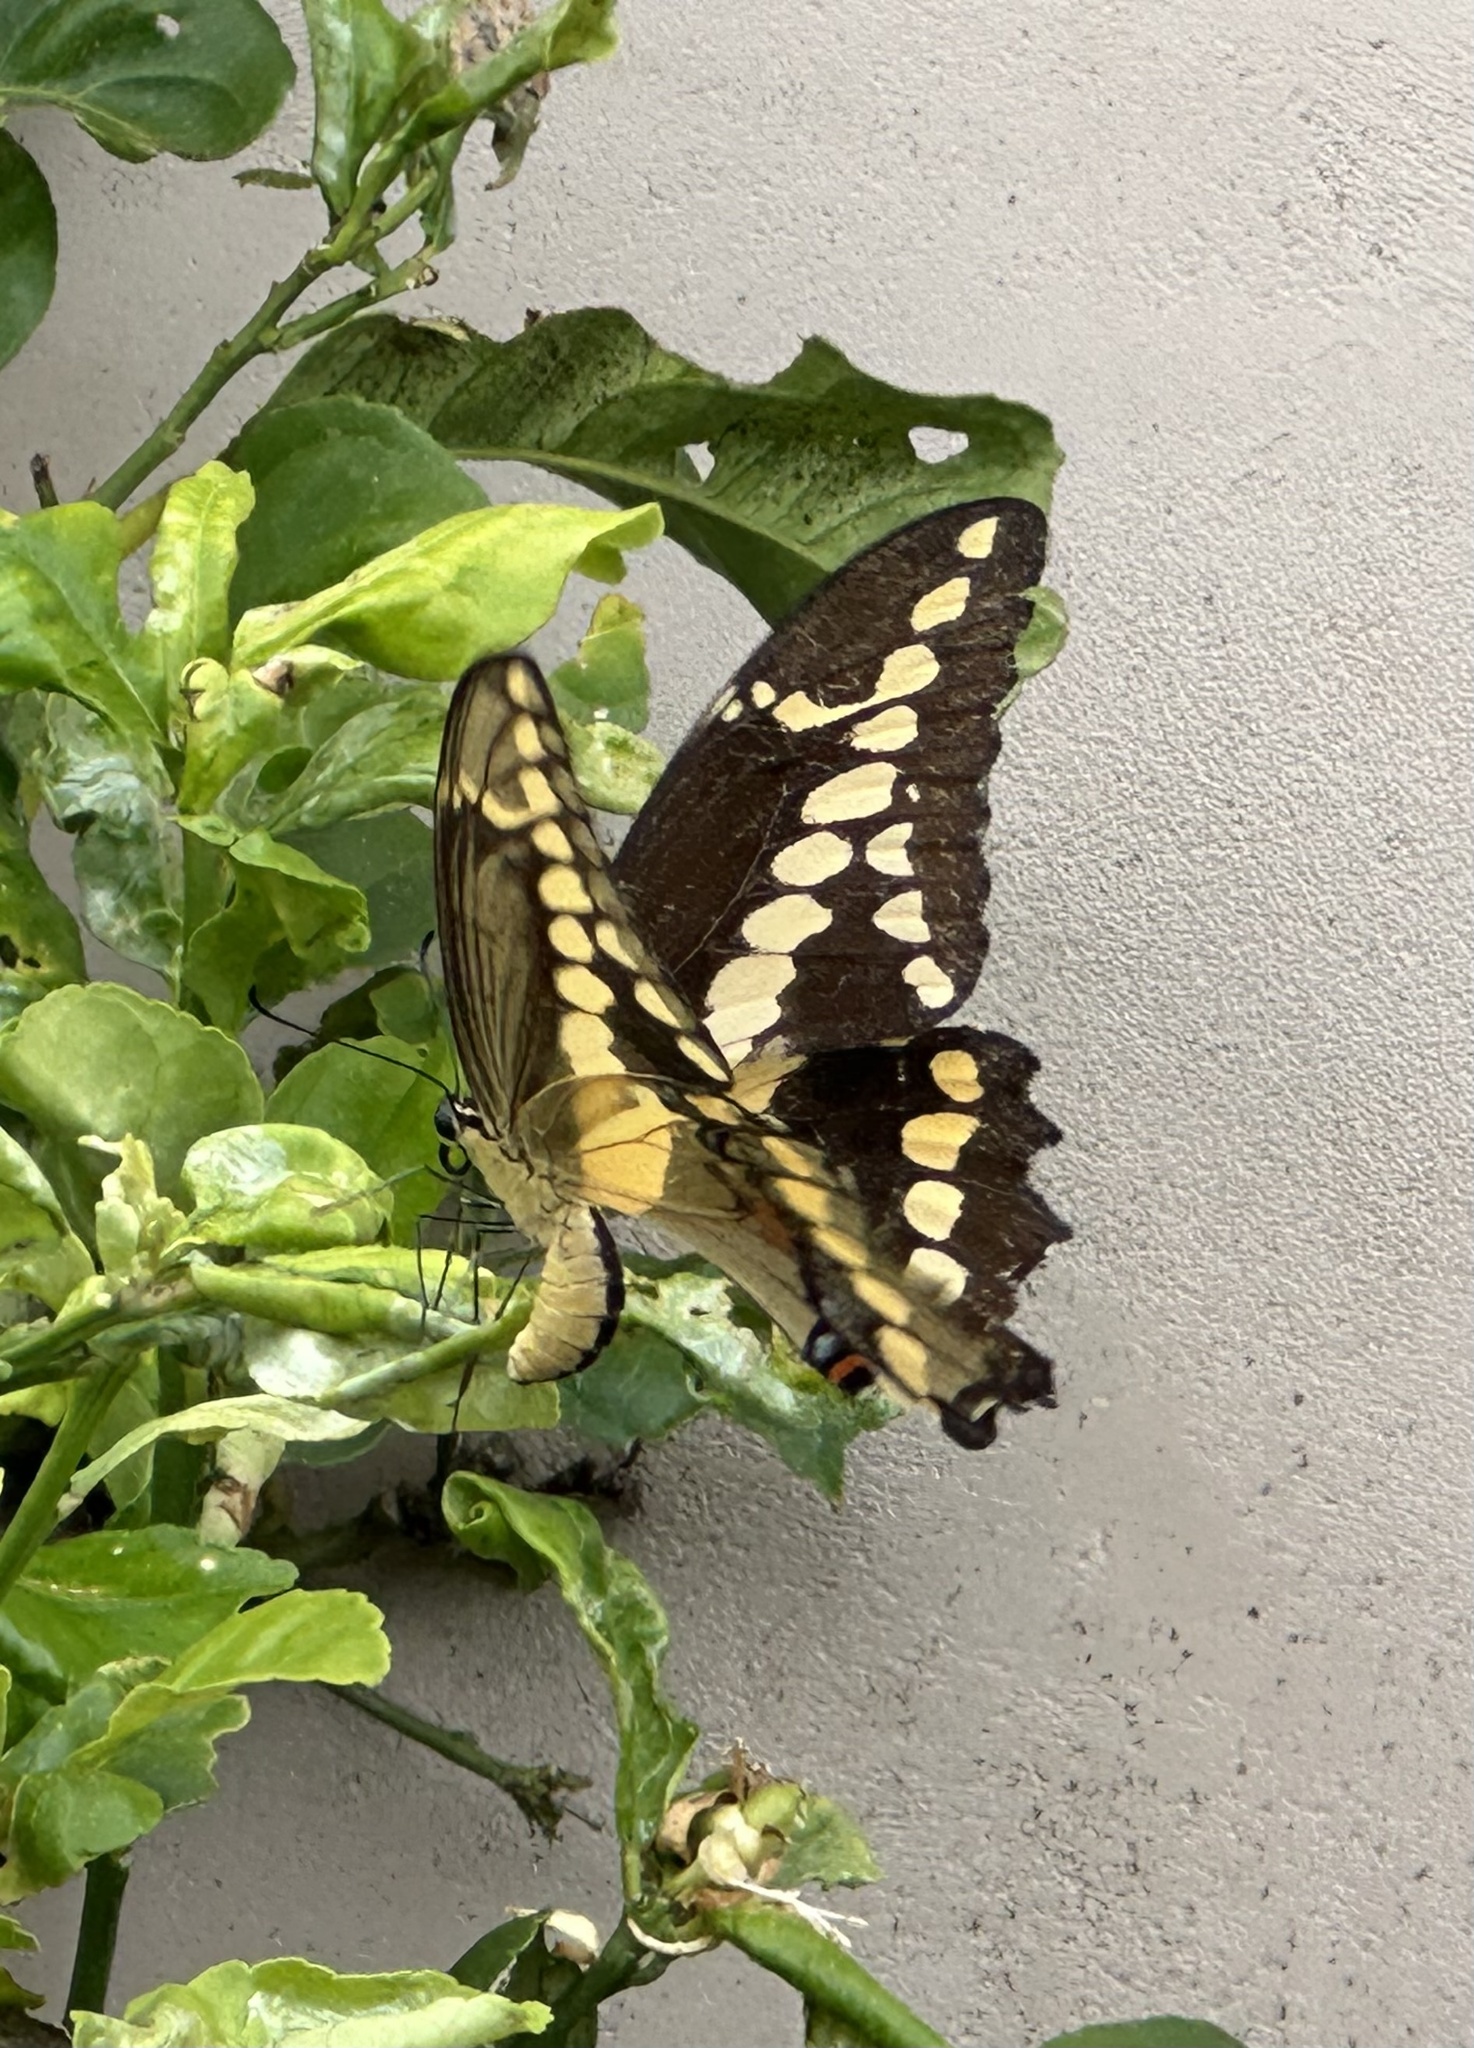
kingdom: Animalia
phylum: Arthropoda
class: Insecta
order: Lepidoptera
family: Papilionidae
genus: Papilio
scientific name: Papilio rumiko
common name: Western giant swallowtail
